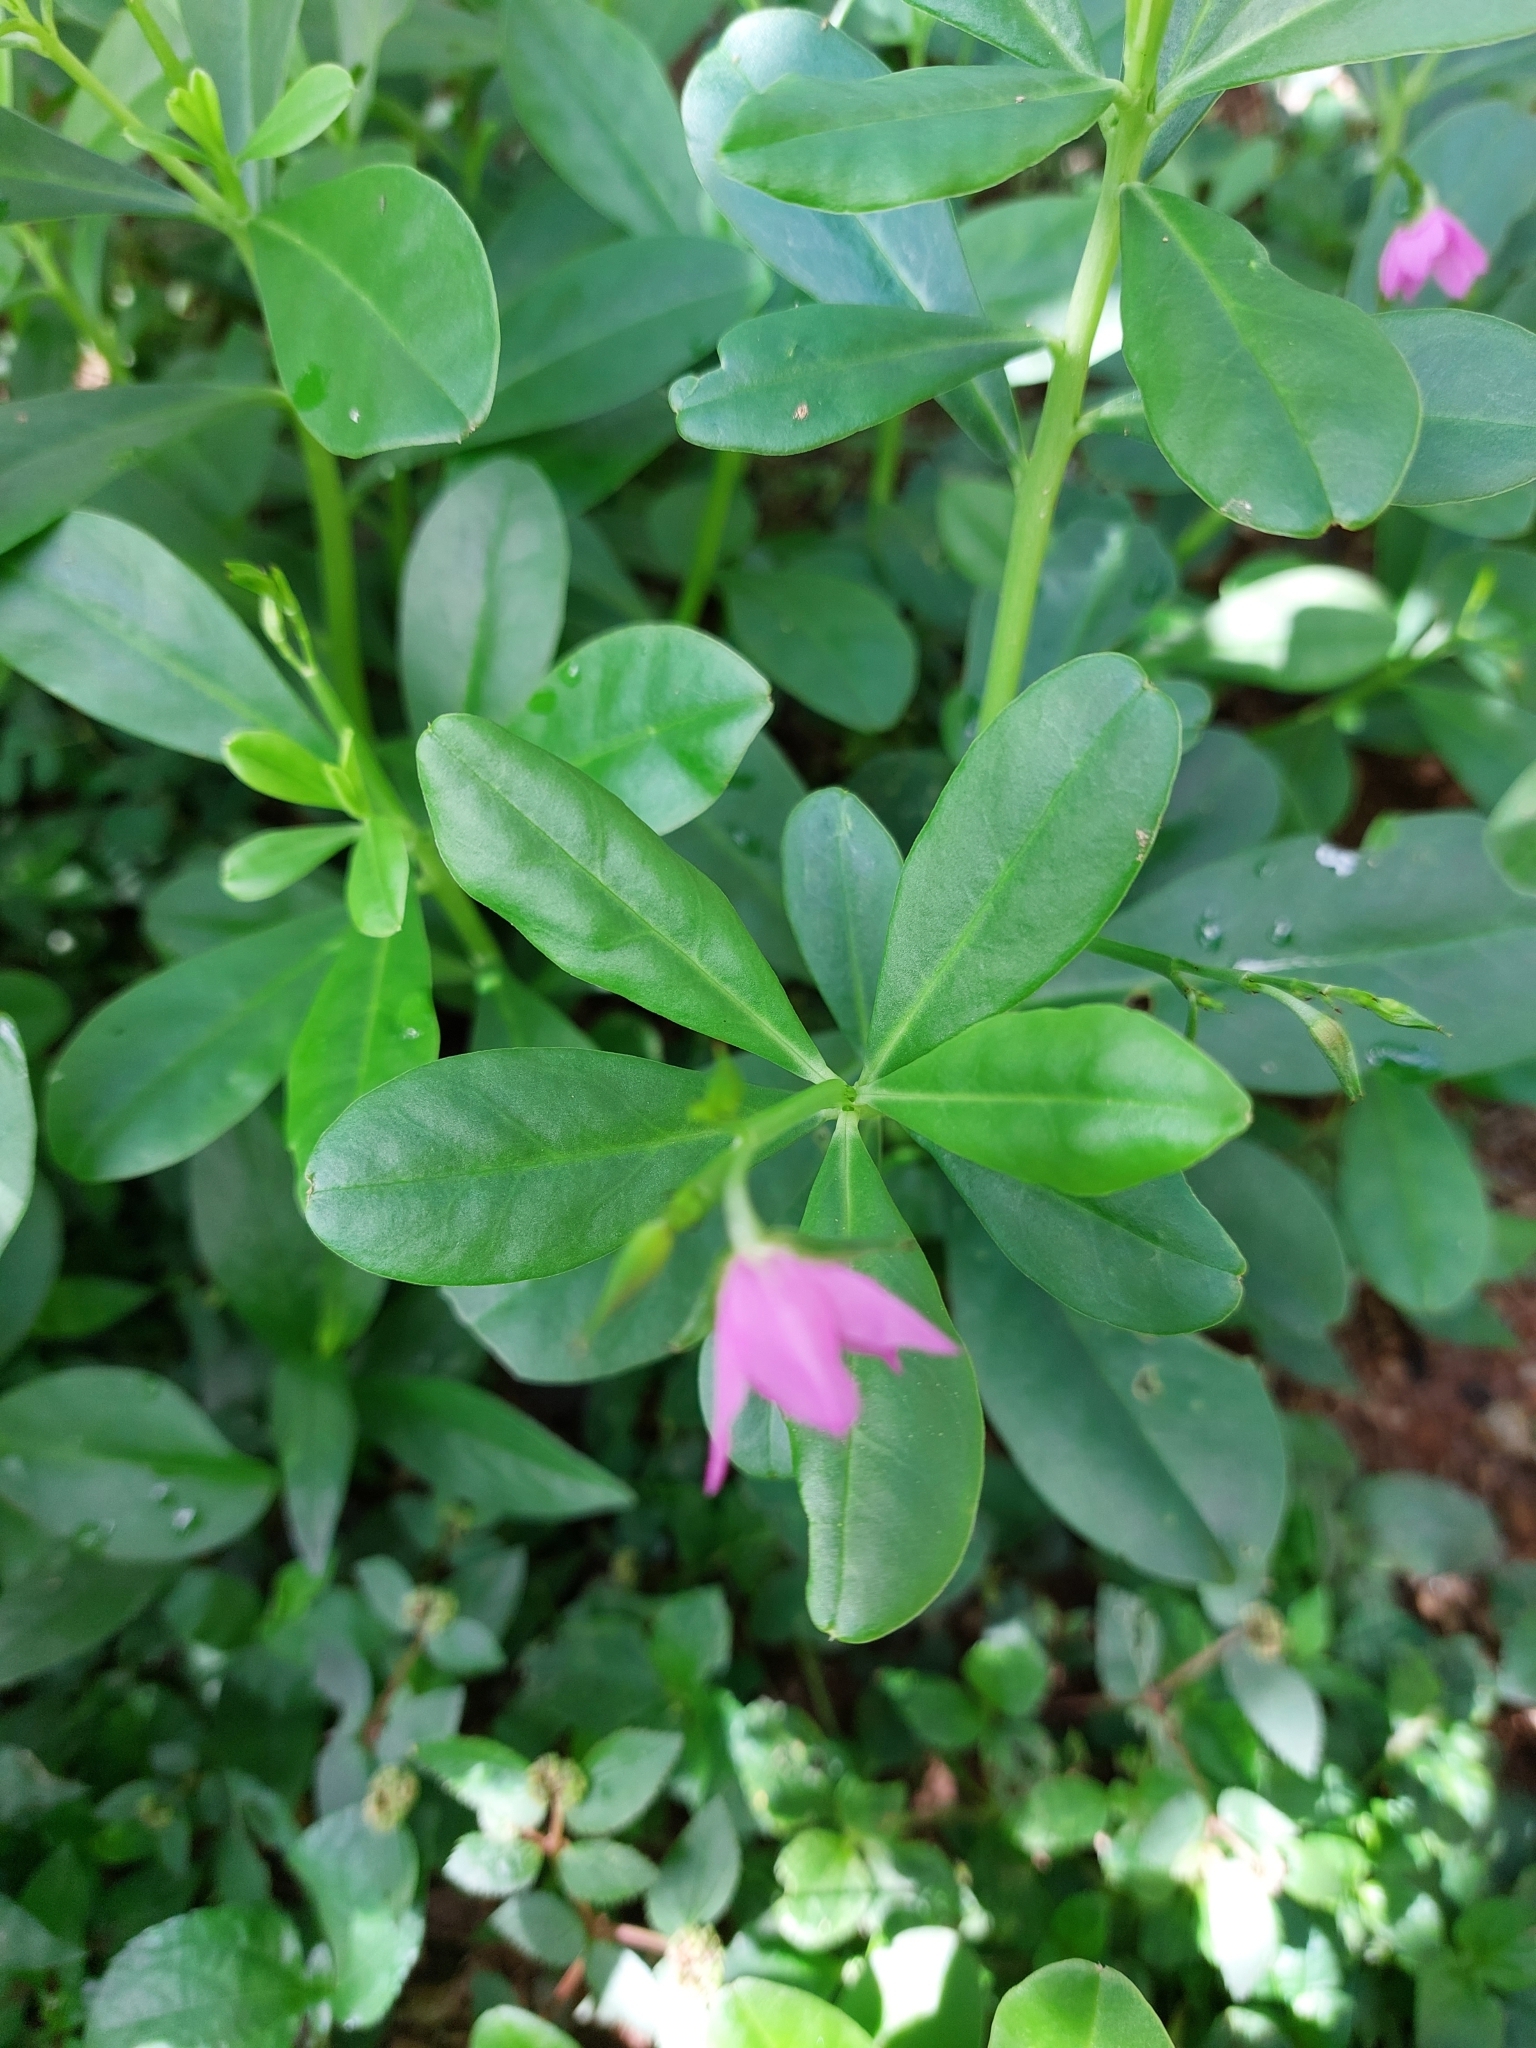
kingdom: Plantae
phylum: Tracheophyta
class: Magnoliopsida
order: Caryophyllales
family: Talinaceae
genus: Talinum
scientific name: Talinum fruticosum
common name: Verdolaga-francesa
